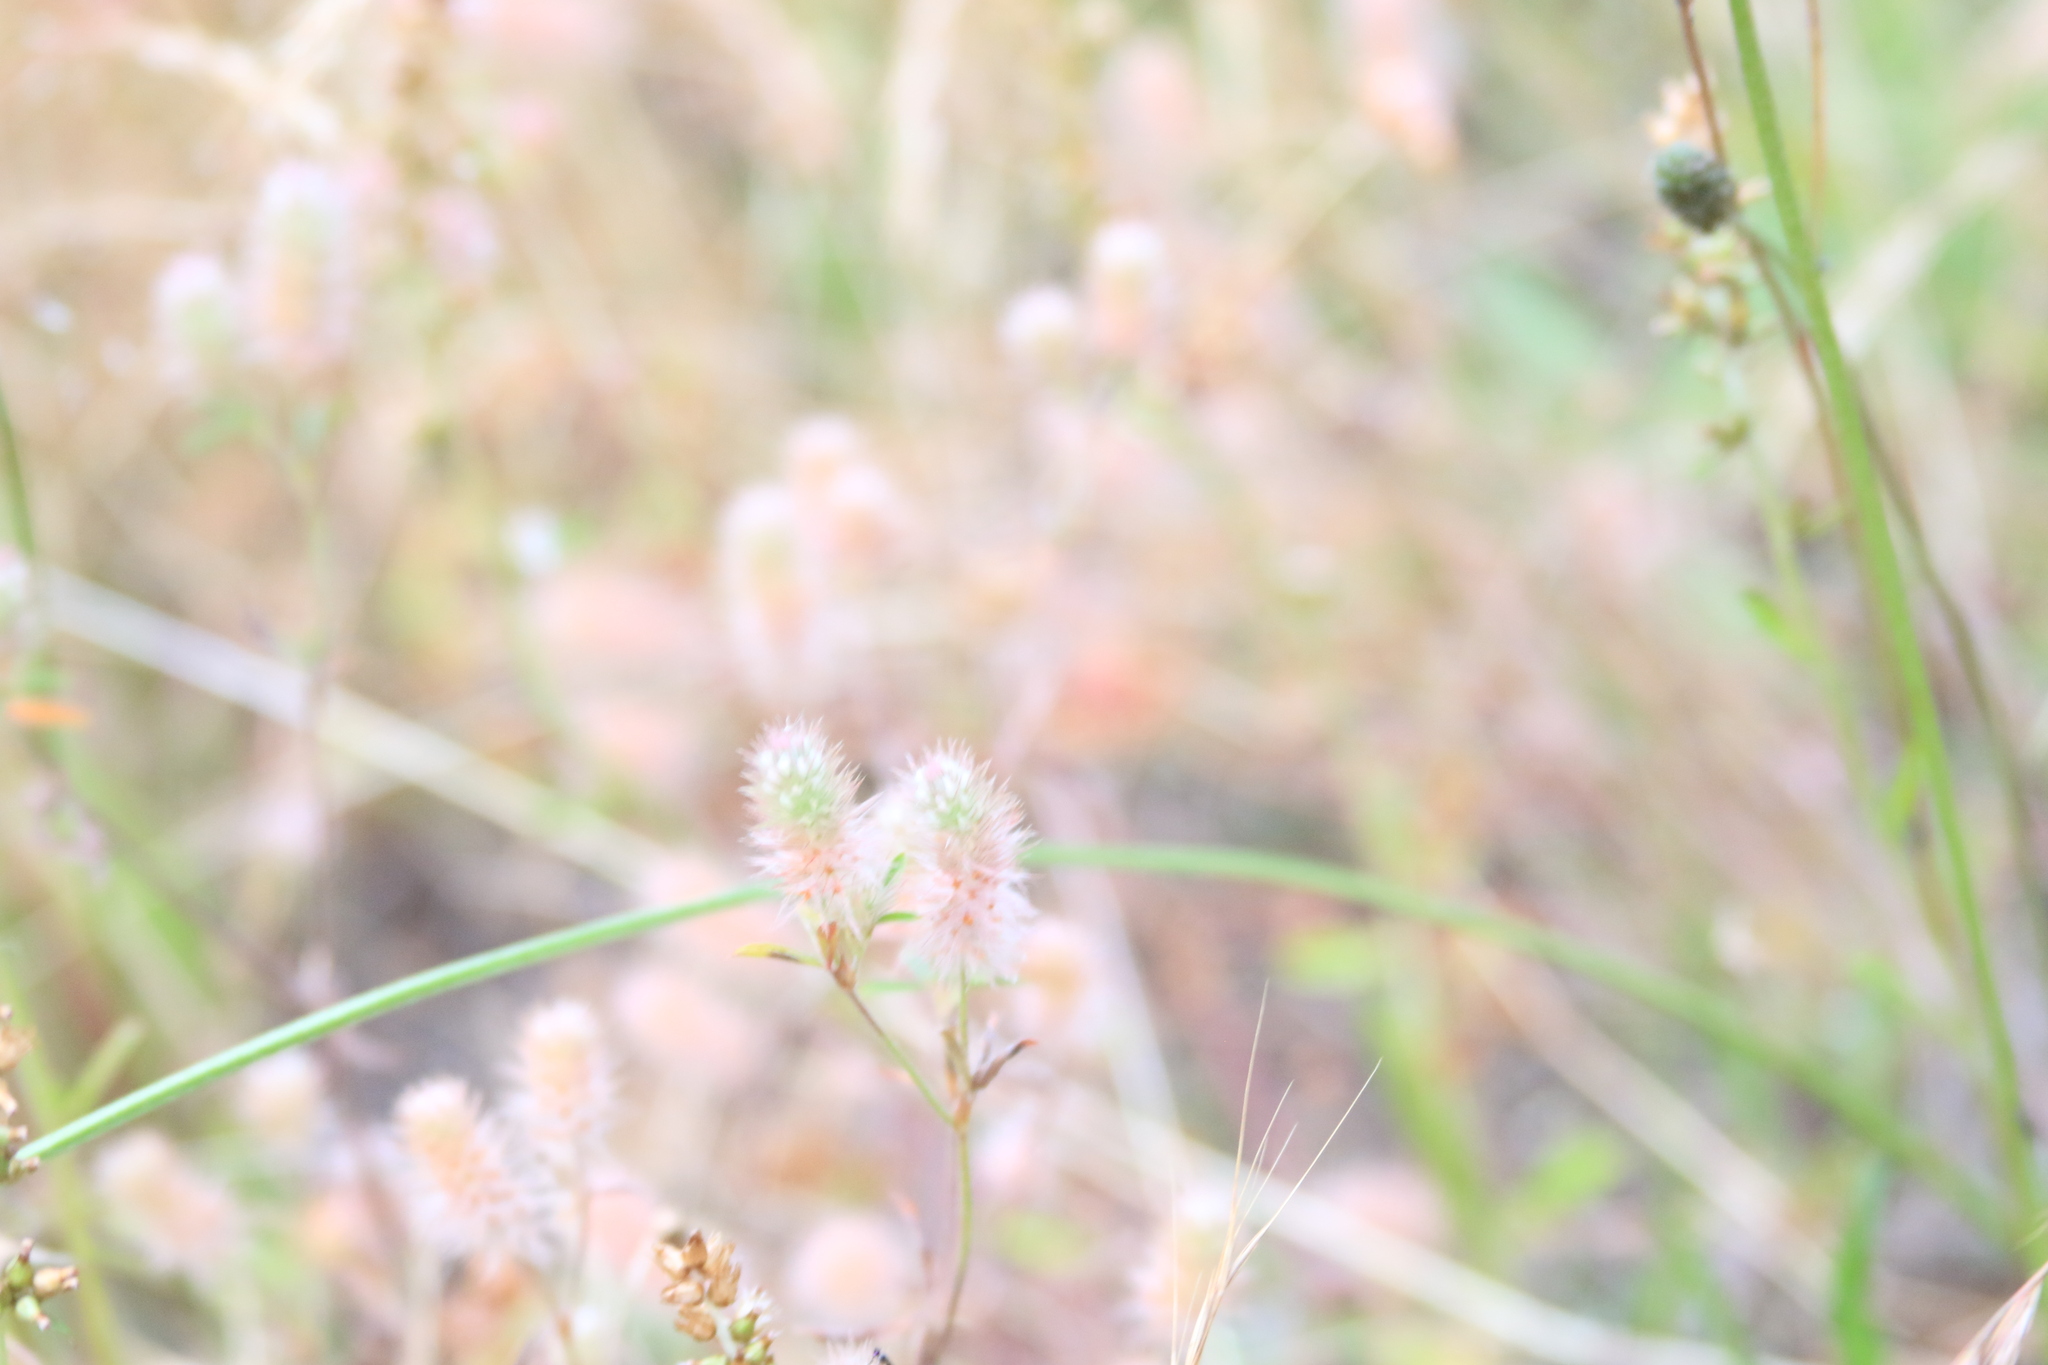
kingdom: Plantae
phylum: Tracheophyta
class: Magnoliopsida
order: Fabales
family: Fabaceae
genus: Trifolium
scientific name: Trifolium arvense
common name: Hare's-foot clover
